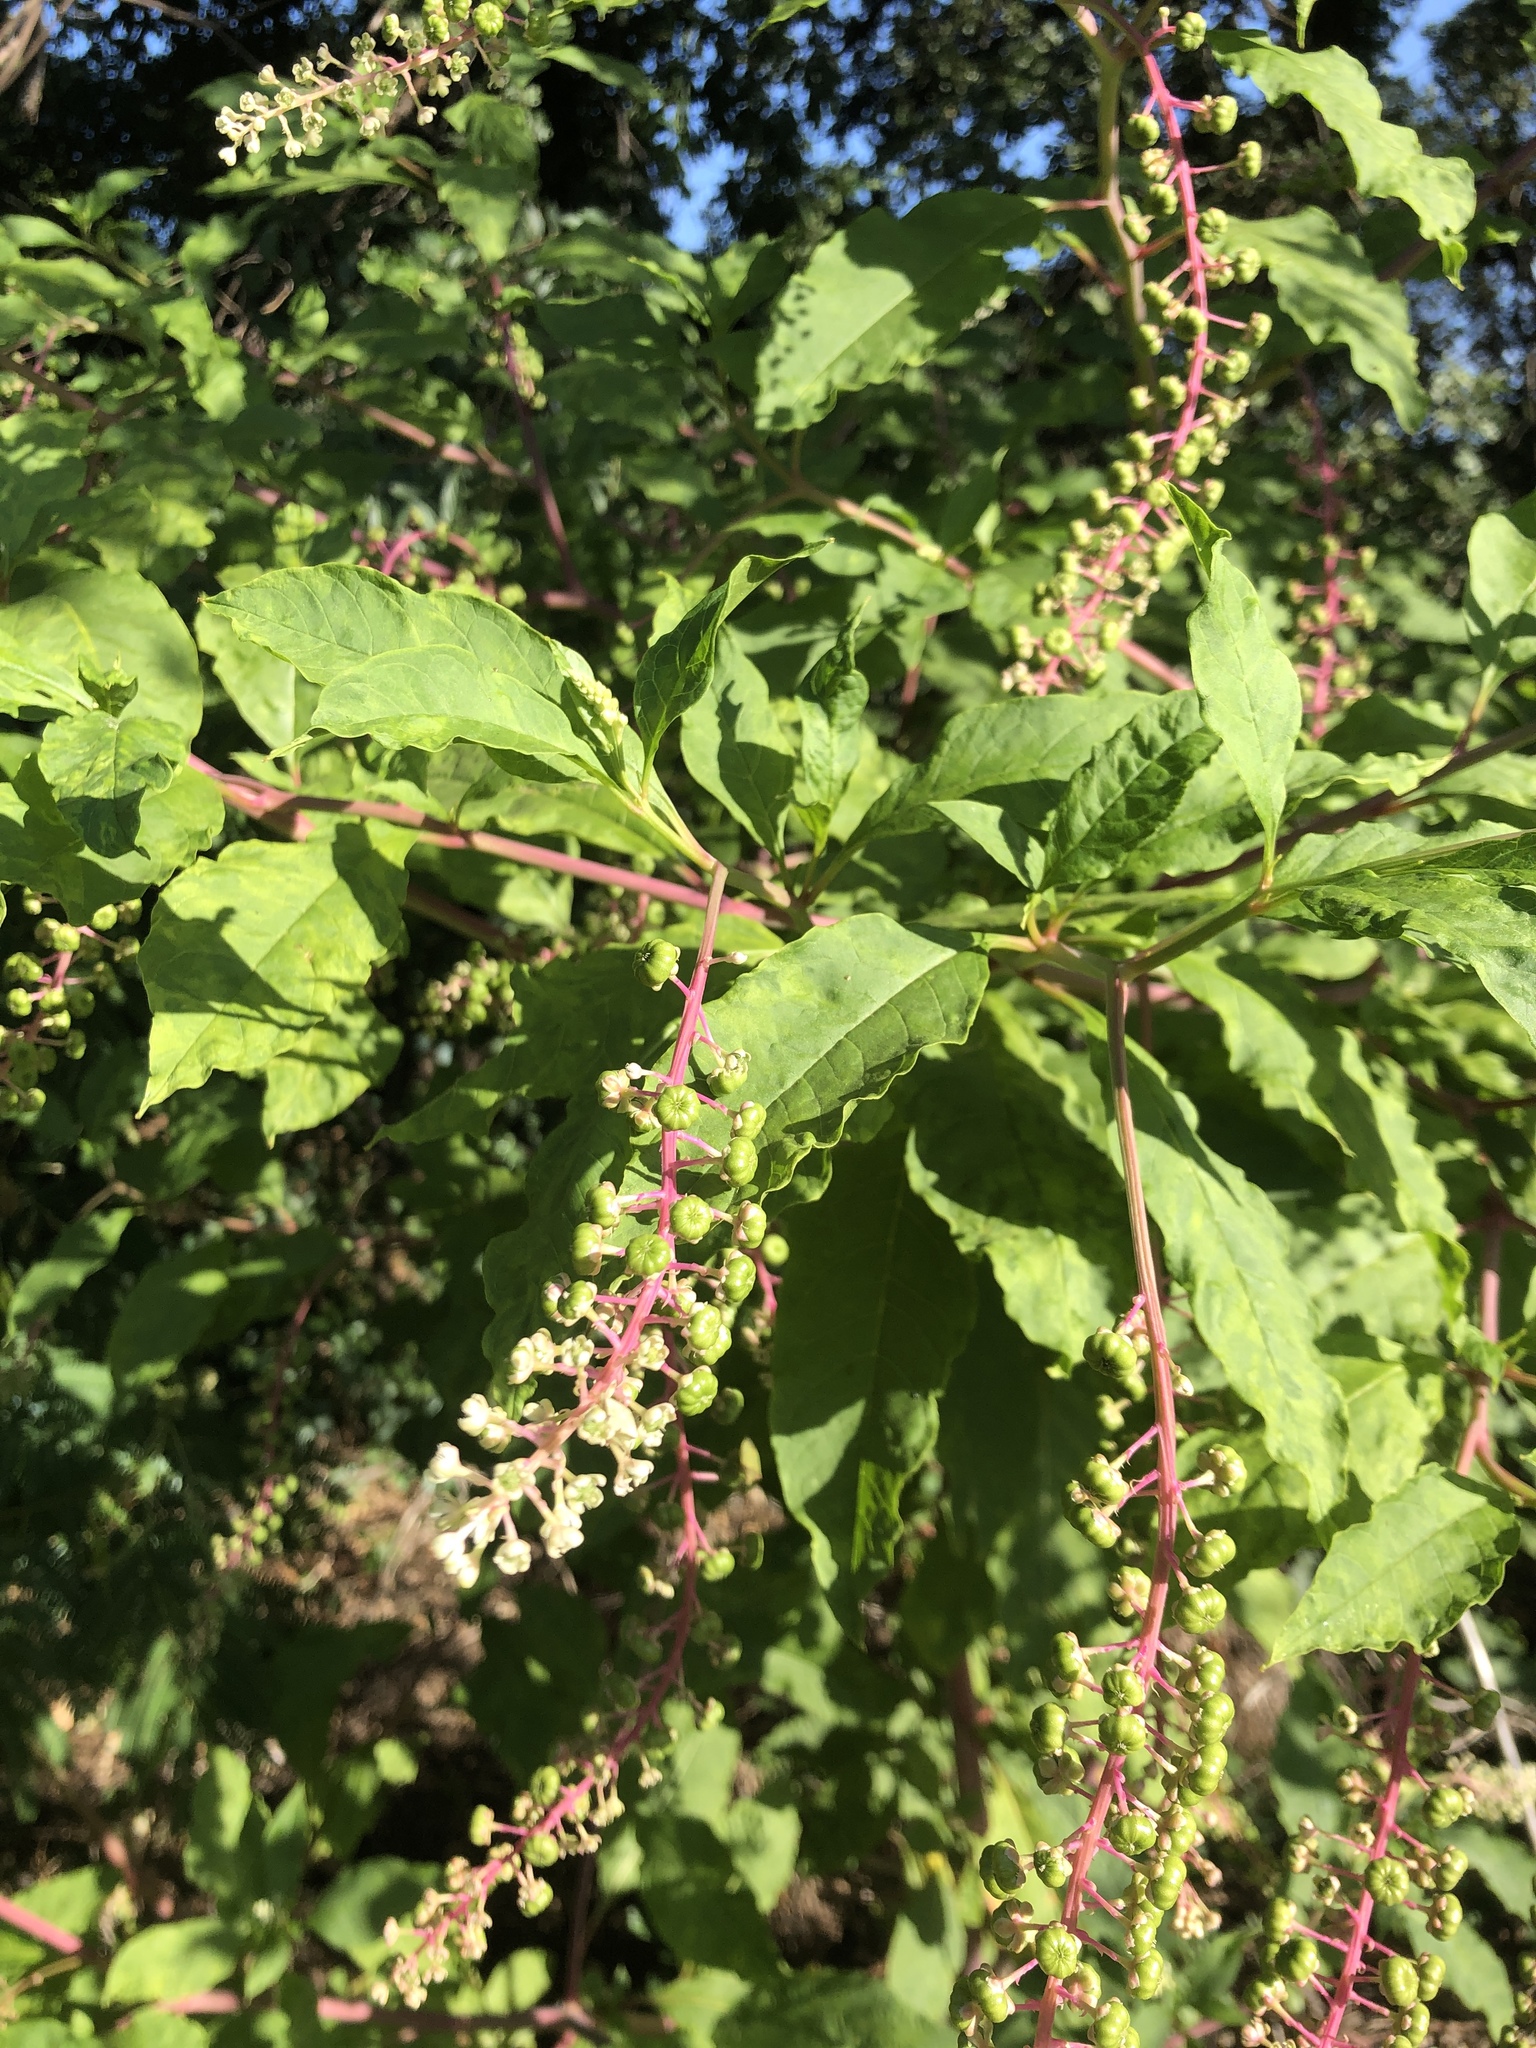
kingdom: Plantae
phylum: Tracheophyta
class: Magnoliopsida
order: Caryophyllales
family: Phytolaccaceae
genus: Phytolacca
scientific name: Phytolacca americana
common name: American pokeweed
